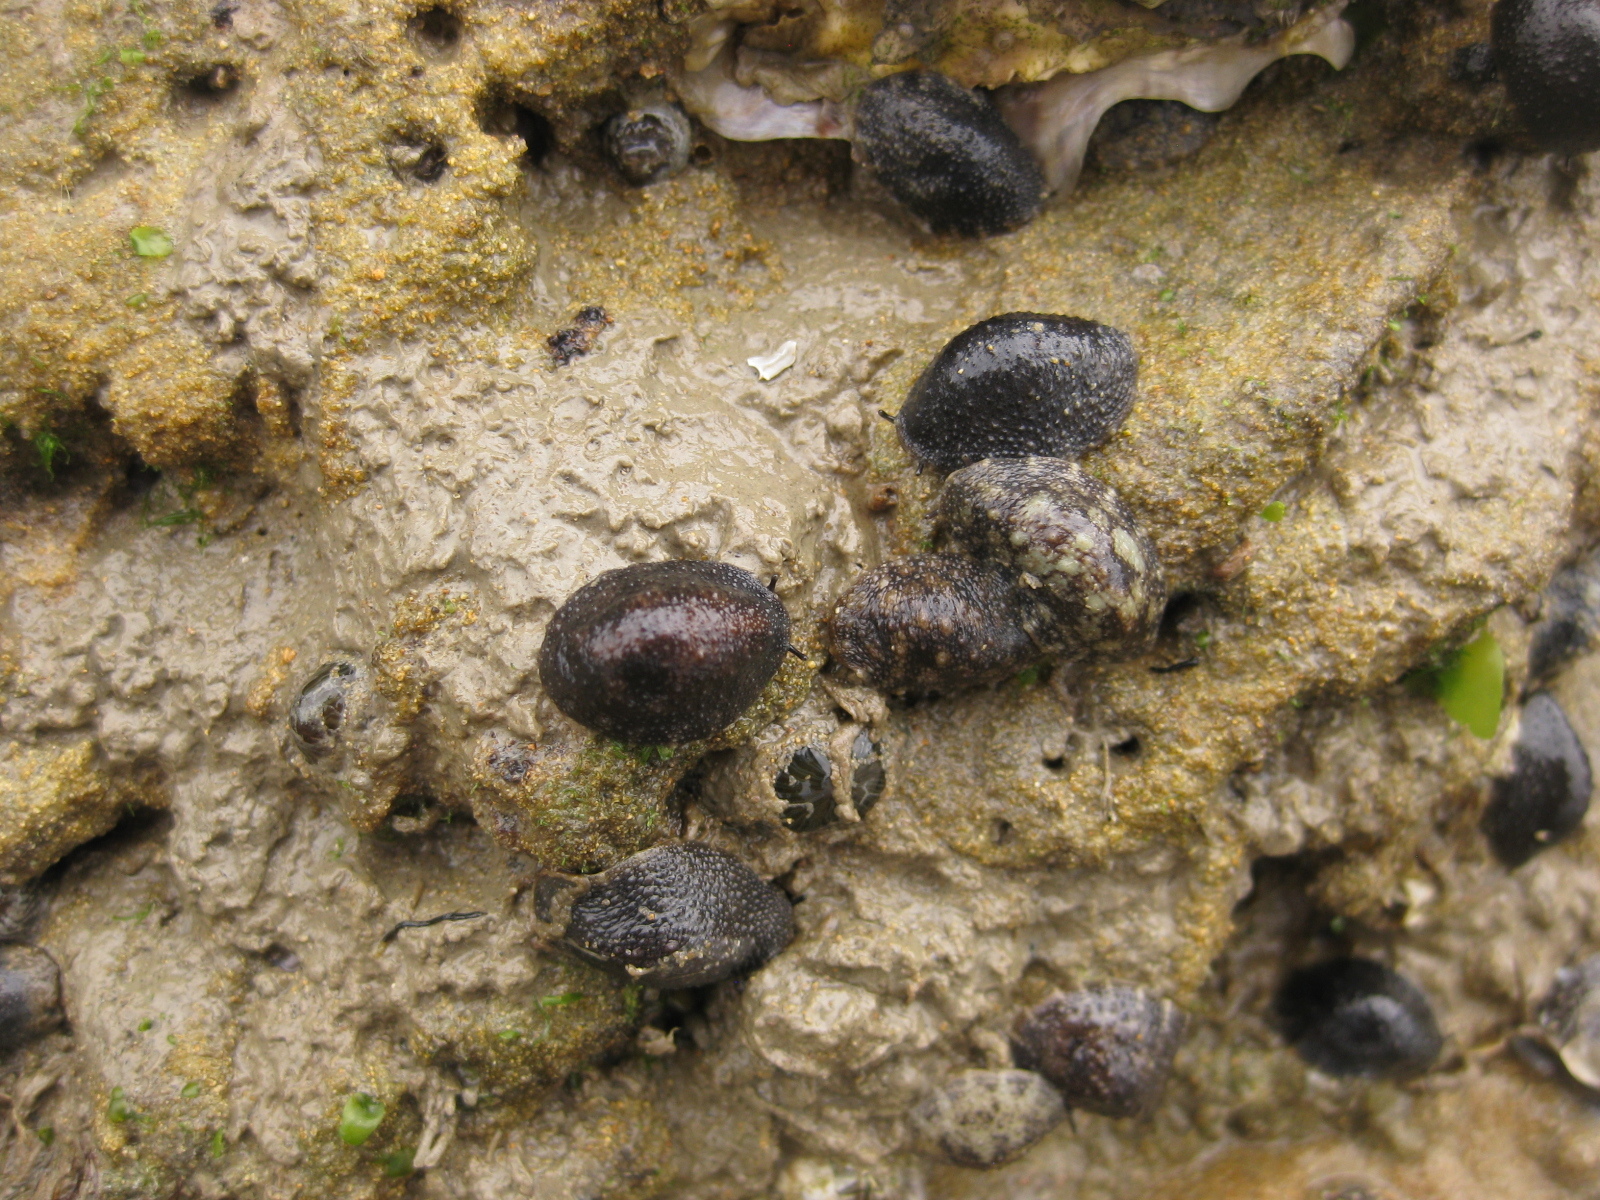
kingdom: Animalia
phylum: Mollusca
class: Gastropoda
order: Systellommatophora
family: Onchidiidae
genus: Onchidella
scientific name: Onchidella nigricans
